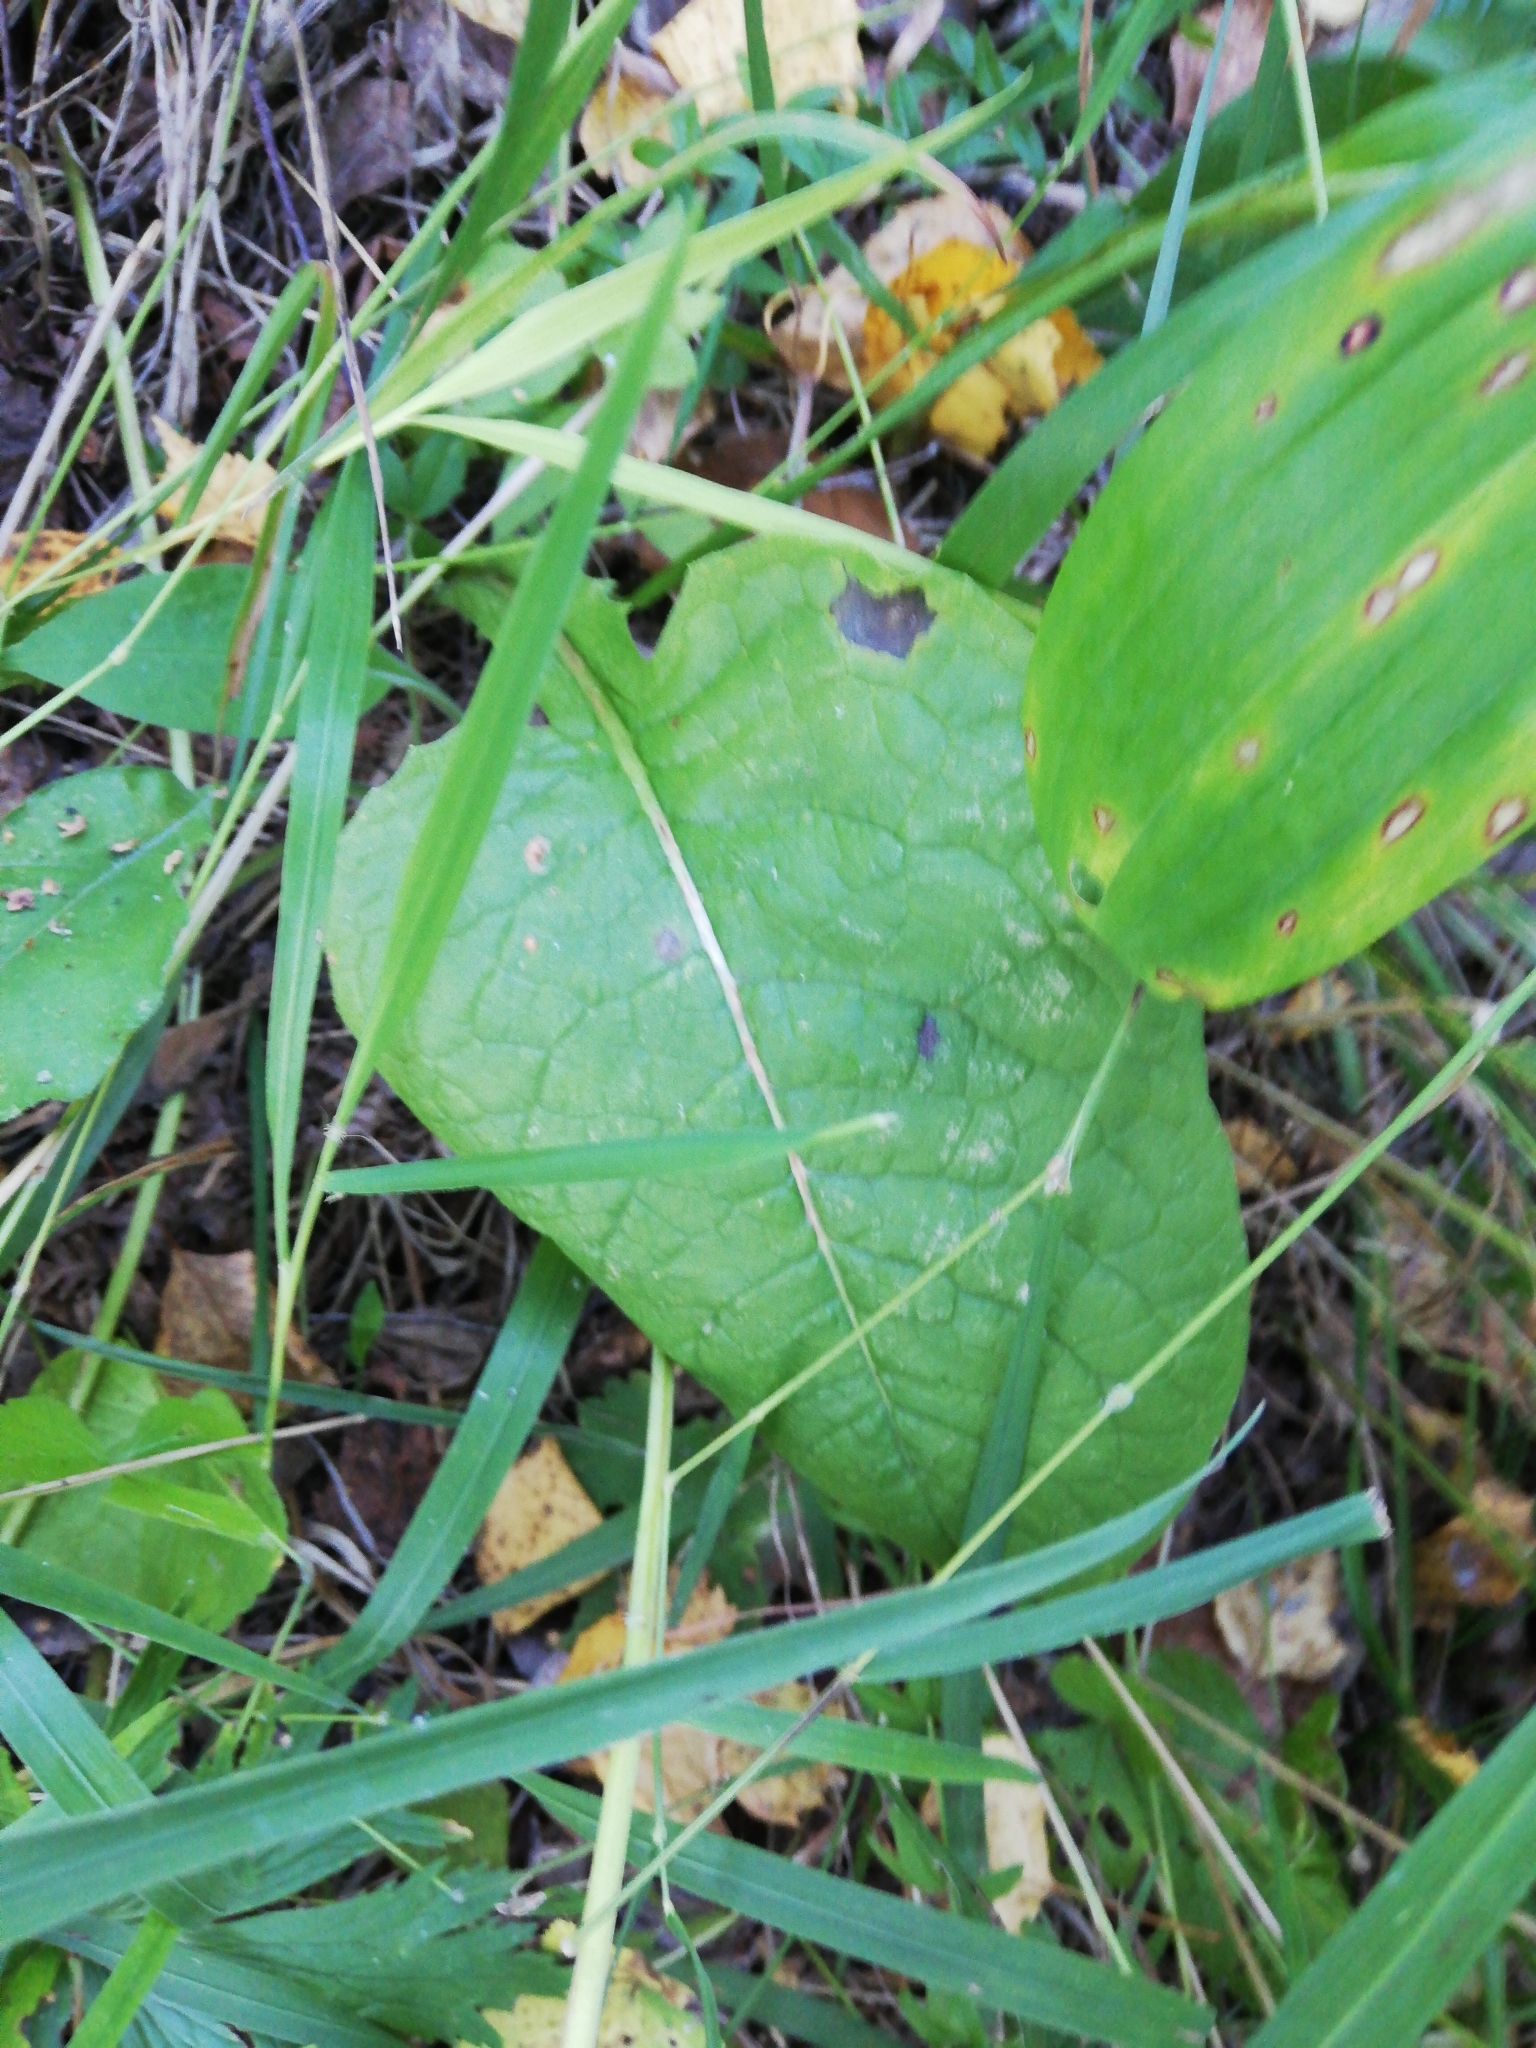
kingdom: Plantae
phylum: Tracheophyta
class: Magnoliopsida
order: Asterales
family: Asteraceae
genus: Crepis
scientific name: Crepis sibirica
